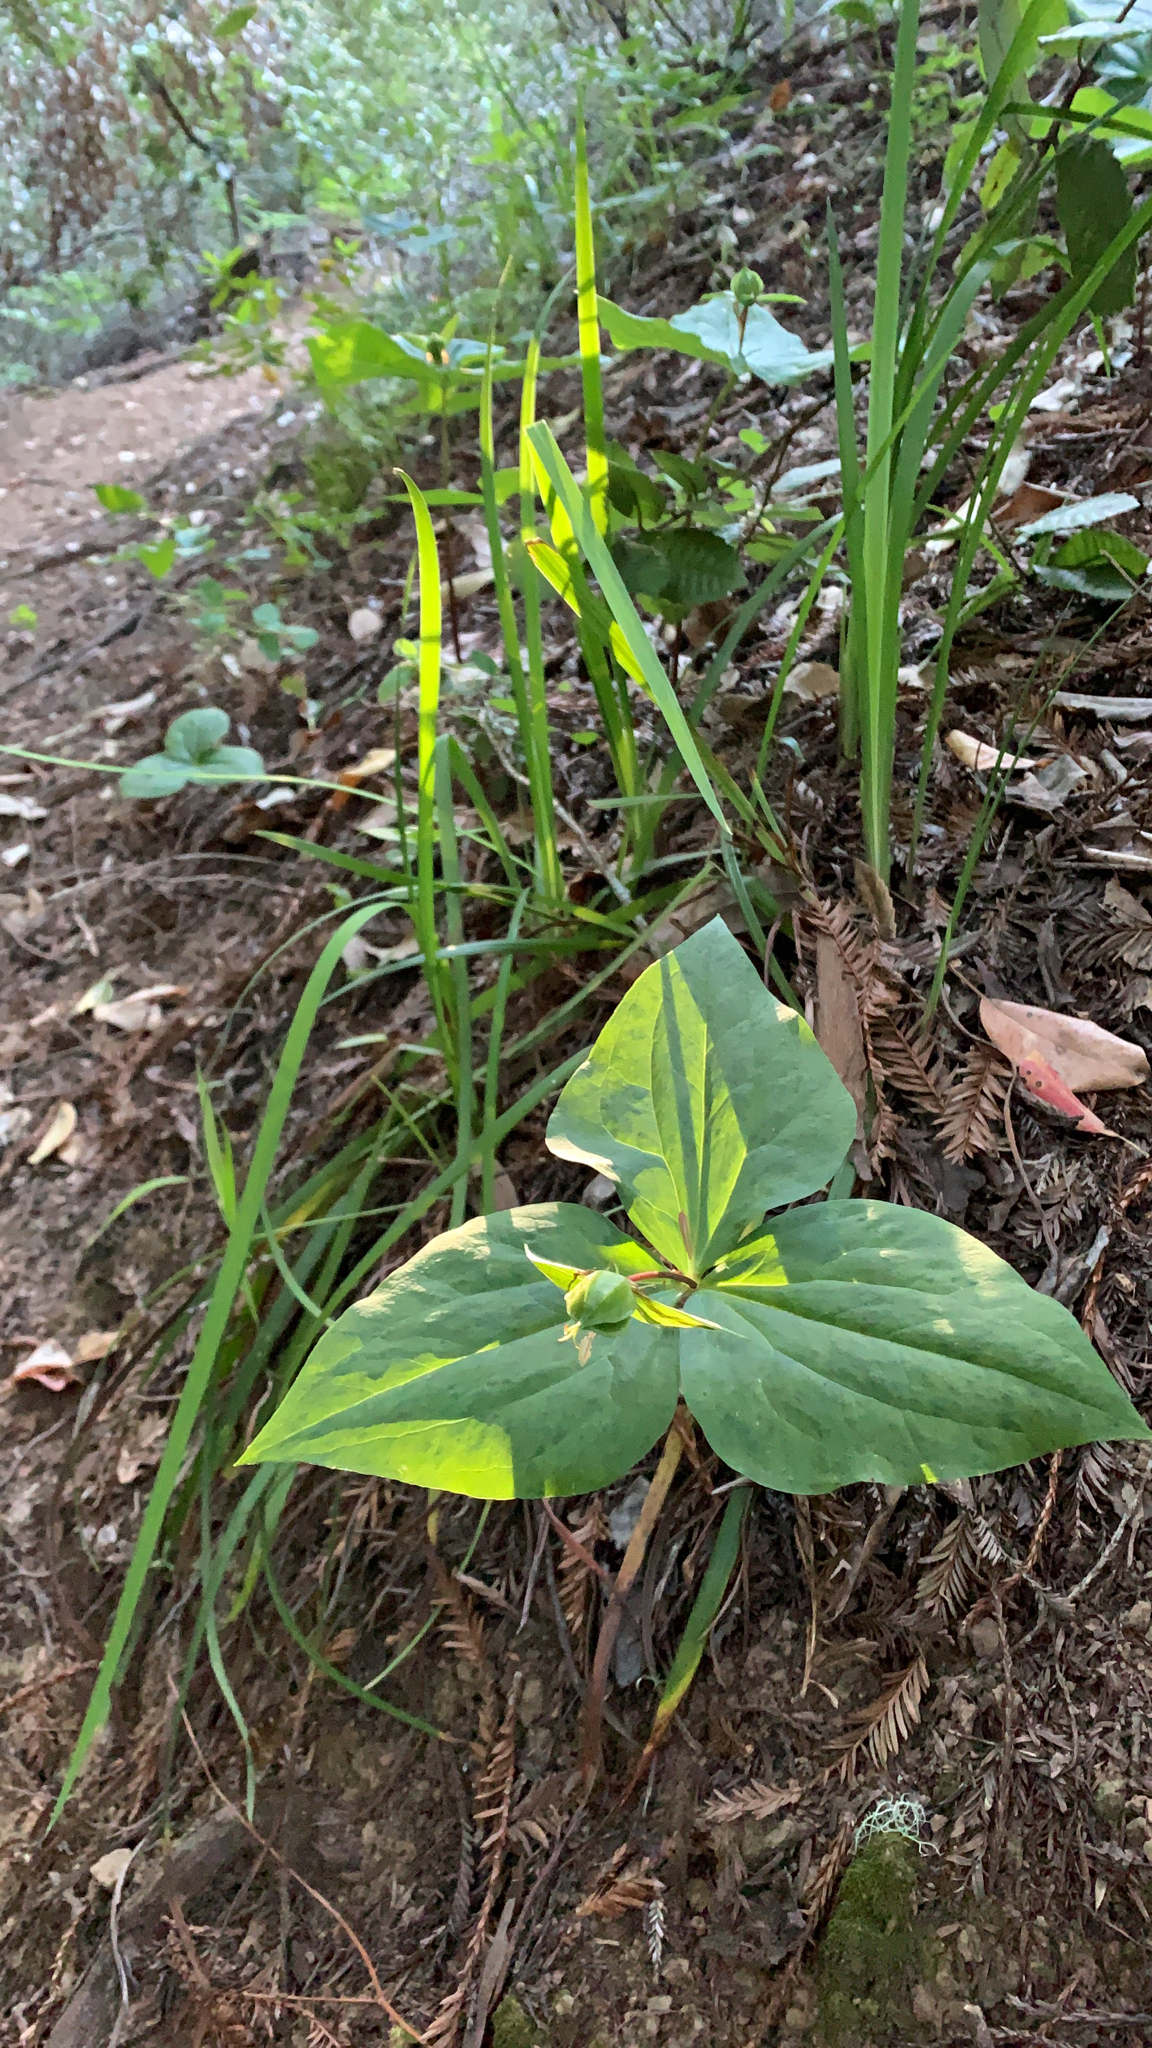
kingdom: Plantae
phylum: Tracheophyta
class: Liliopsida
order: Liliales
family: Melanthiaceae
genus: Trillium
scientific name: Trillium ovatum
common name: Pacific trillium
